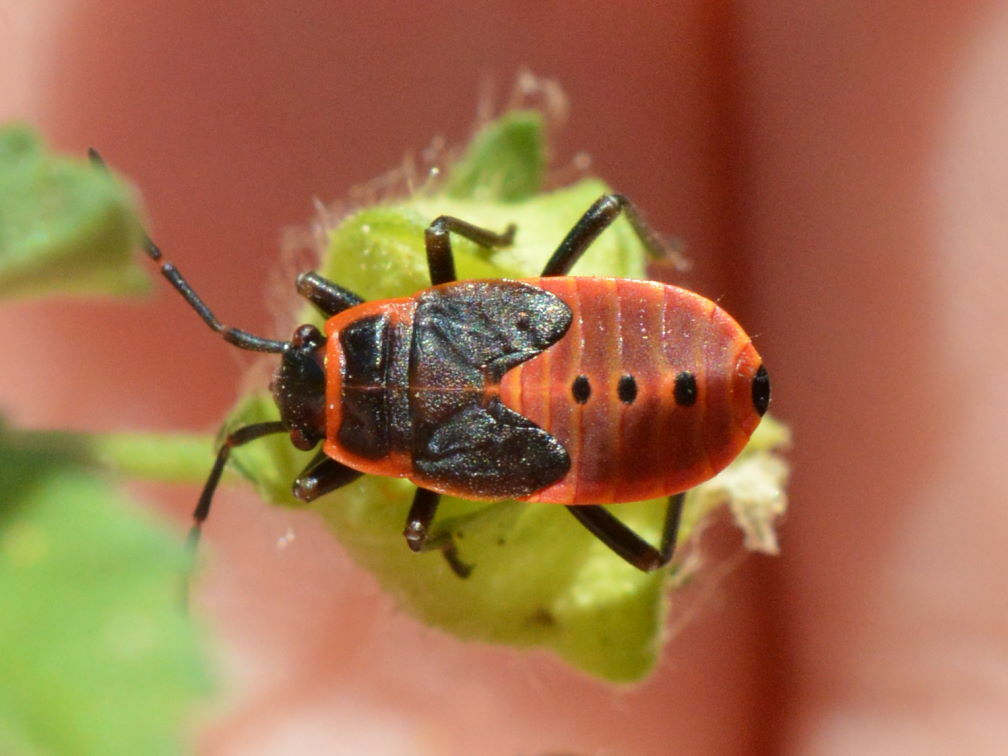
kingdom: Animalia
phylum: Arthropoda
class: Insecta
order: Hemiptera
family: Pyrrhocoridae
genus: Pyrrhocoris
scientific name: Pyrrhocoris apterus
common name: Firebug
